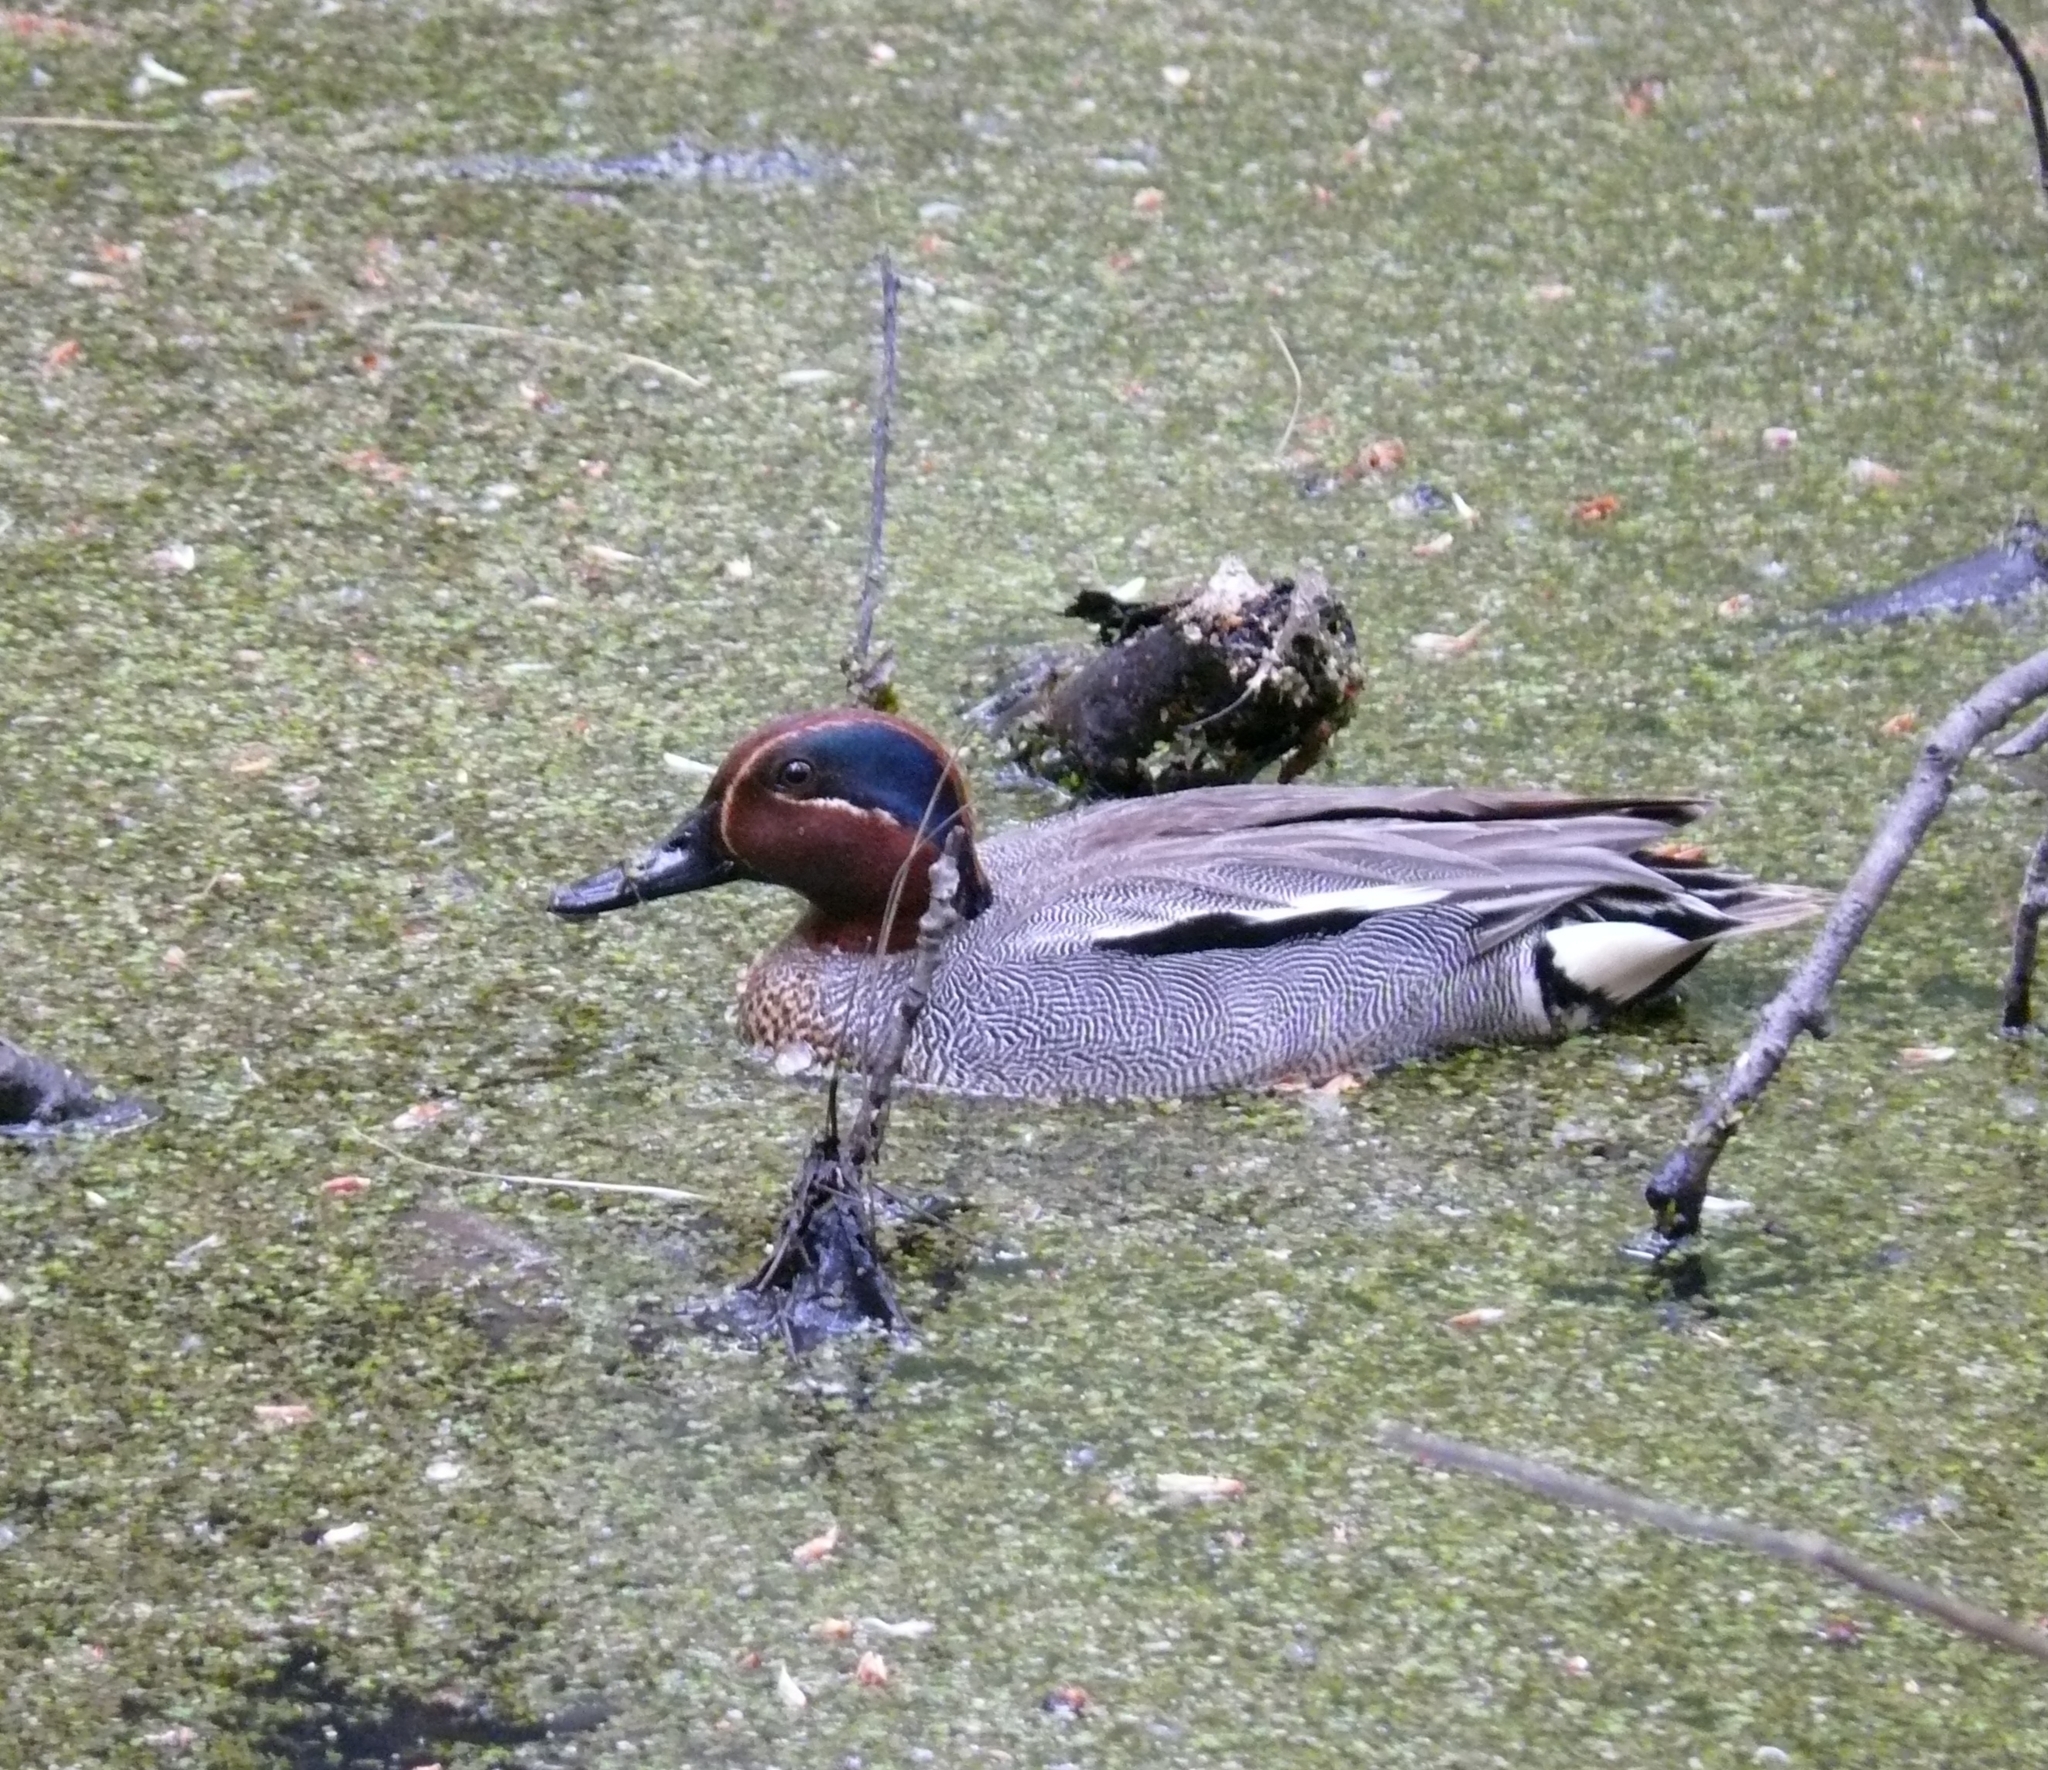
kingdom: Animalia
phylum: Chordata
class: Aves
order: Anseriformes
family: Anatidae
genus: Anas
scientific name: Anas crecca
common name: Eurasian teal
